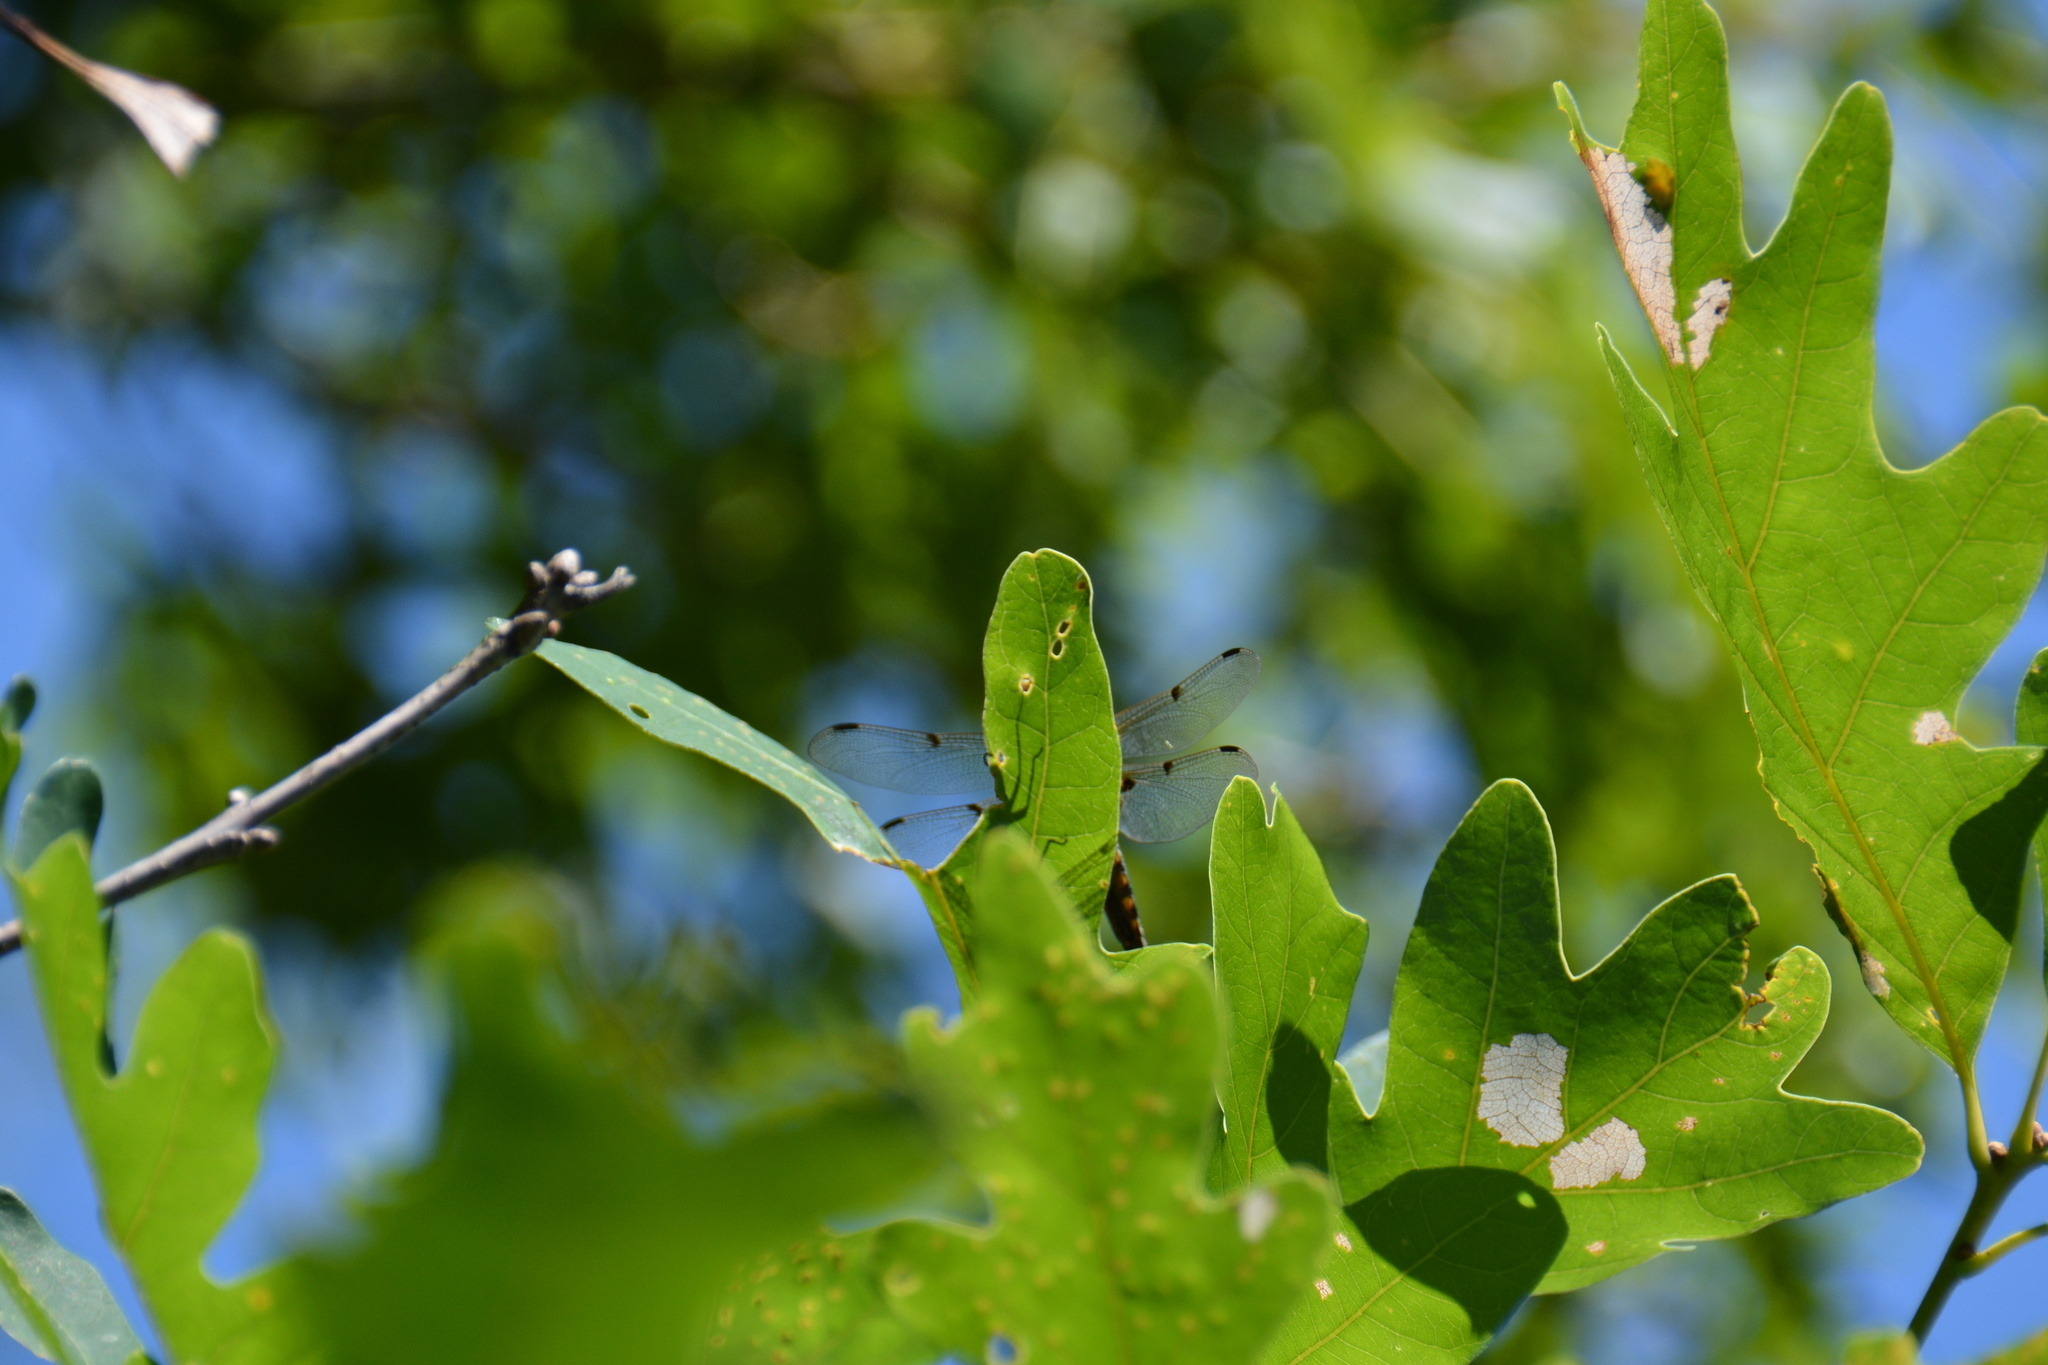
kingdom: Animalia
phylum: Arthropoda
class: Insecta
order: Odonata
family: Libellulidae
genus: Libellula
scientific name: Libellula quadrimaculata
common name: Four-spotted chaser
